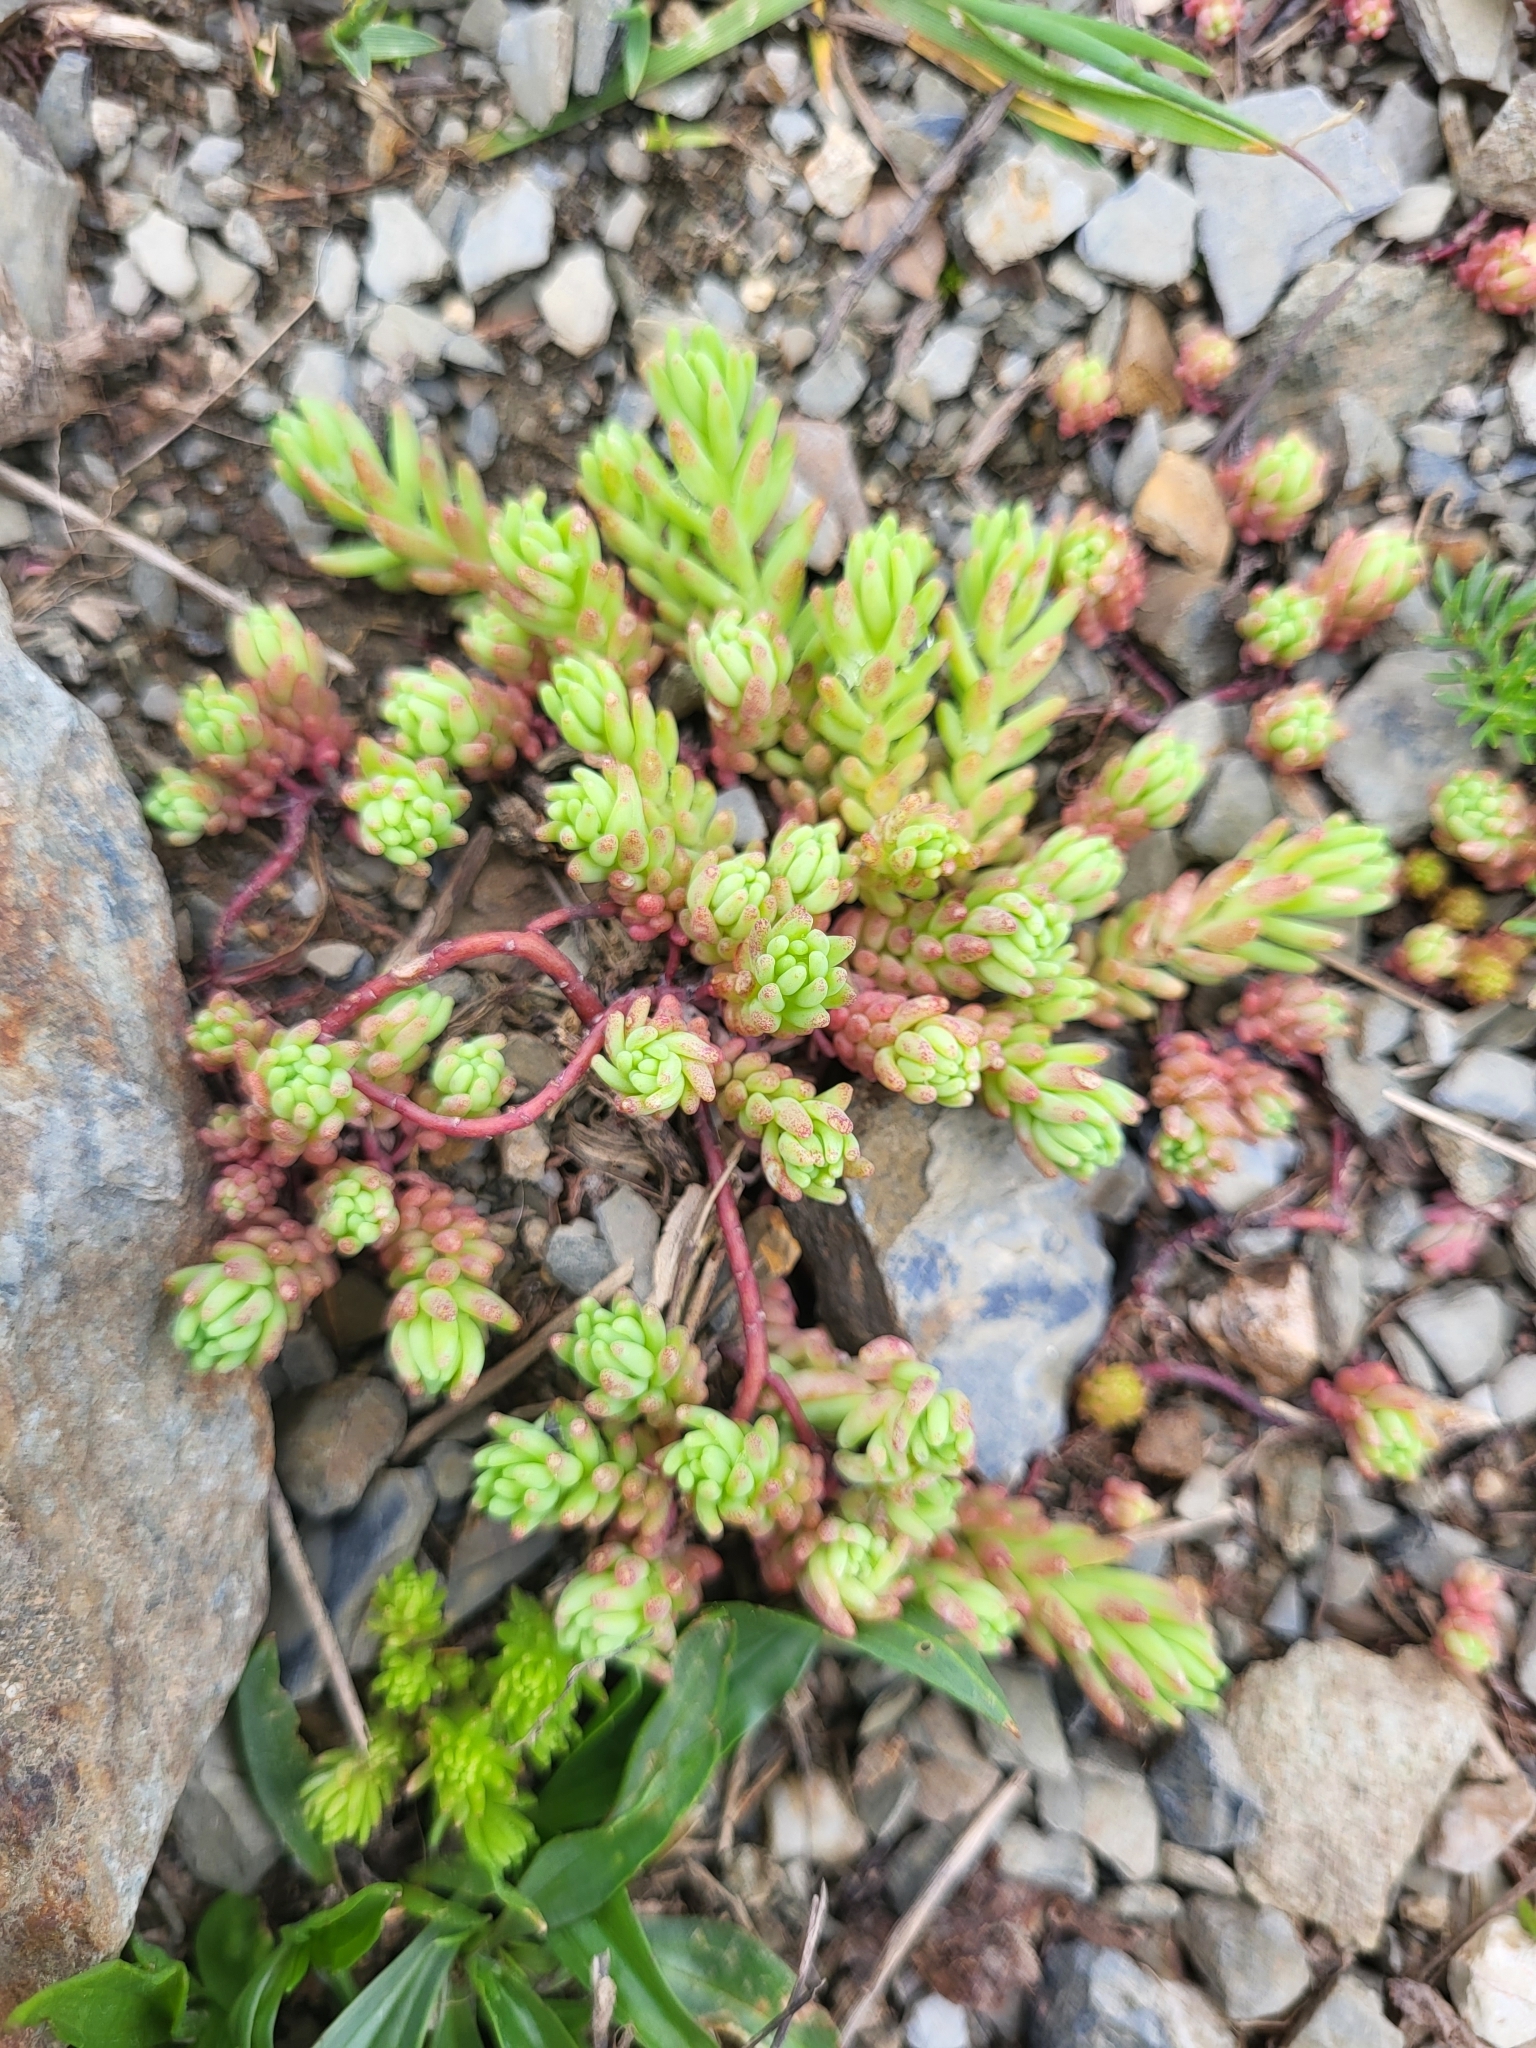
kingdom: Plantae
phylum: Tracheophyta
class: Magnoliopsida
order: Saxifragales
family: Crassulaceae
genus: Sedum
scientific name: Sedum pallidum
